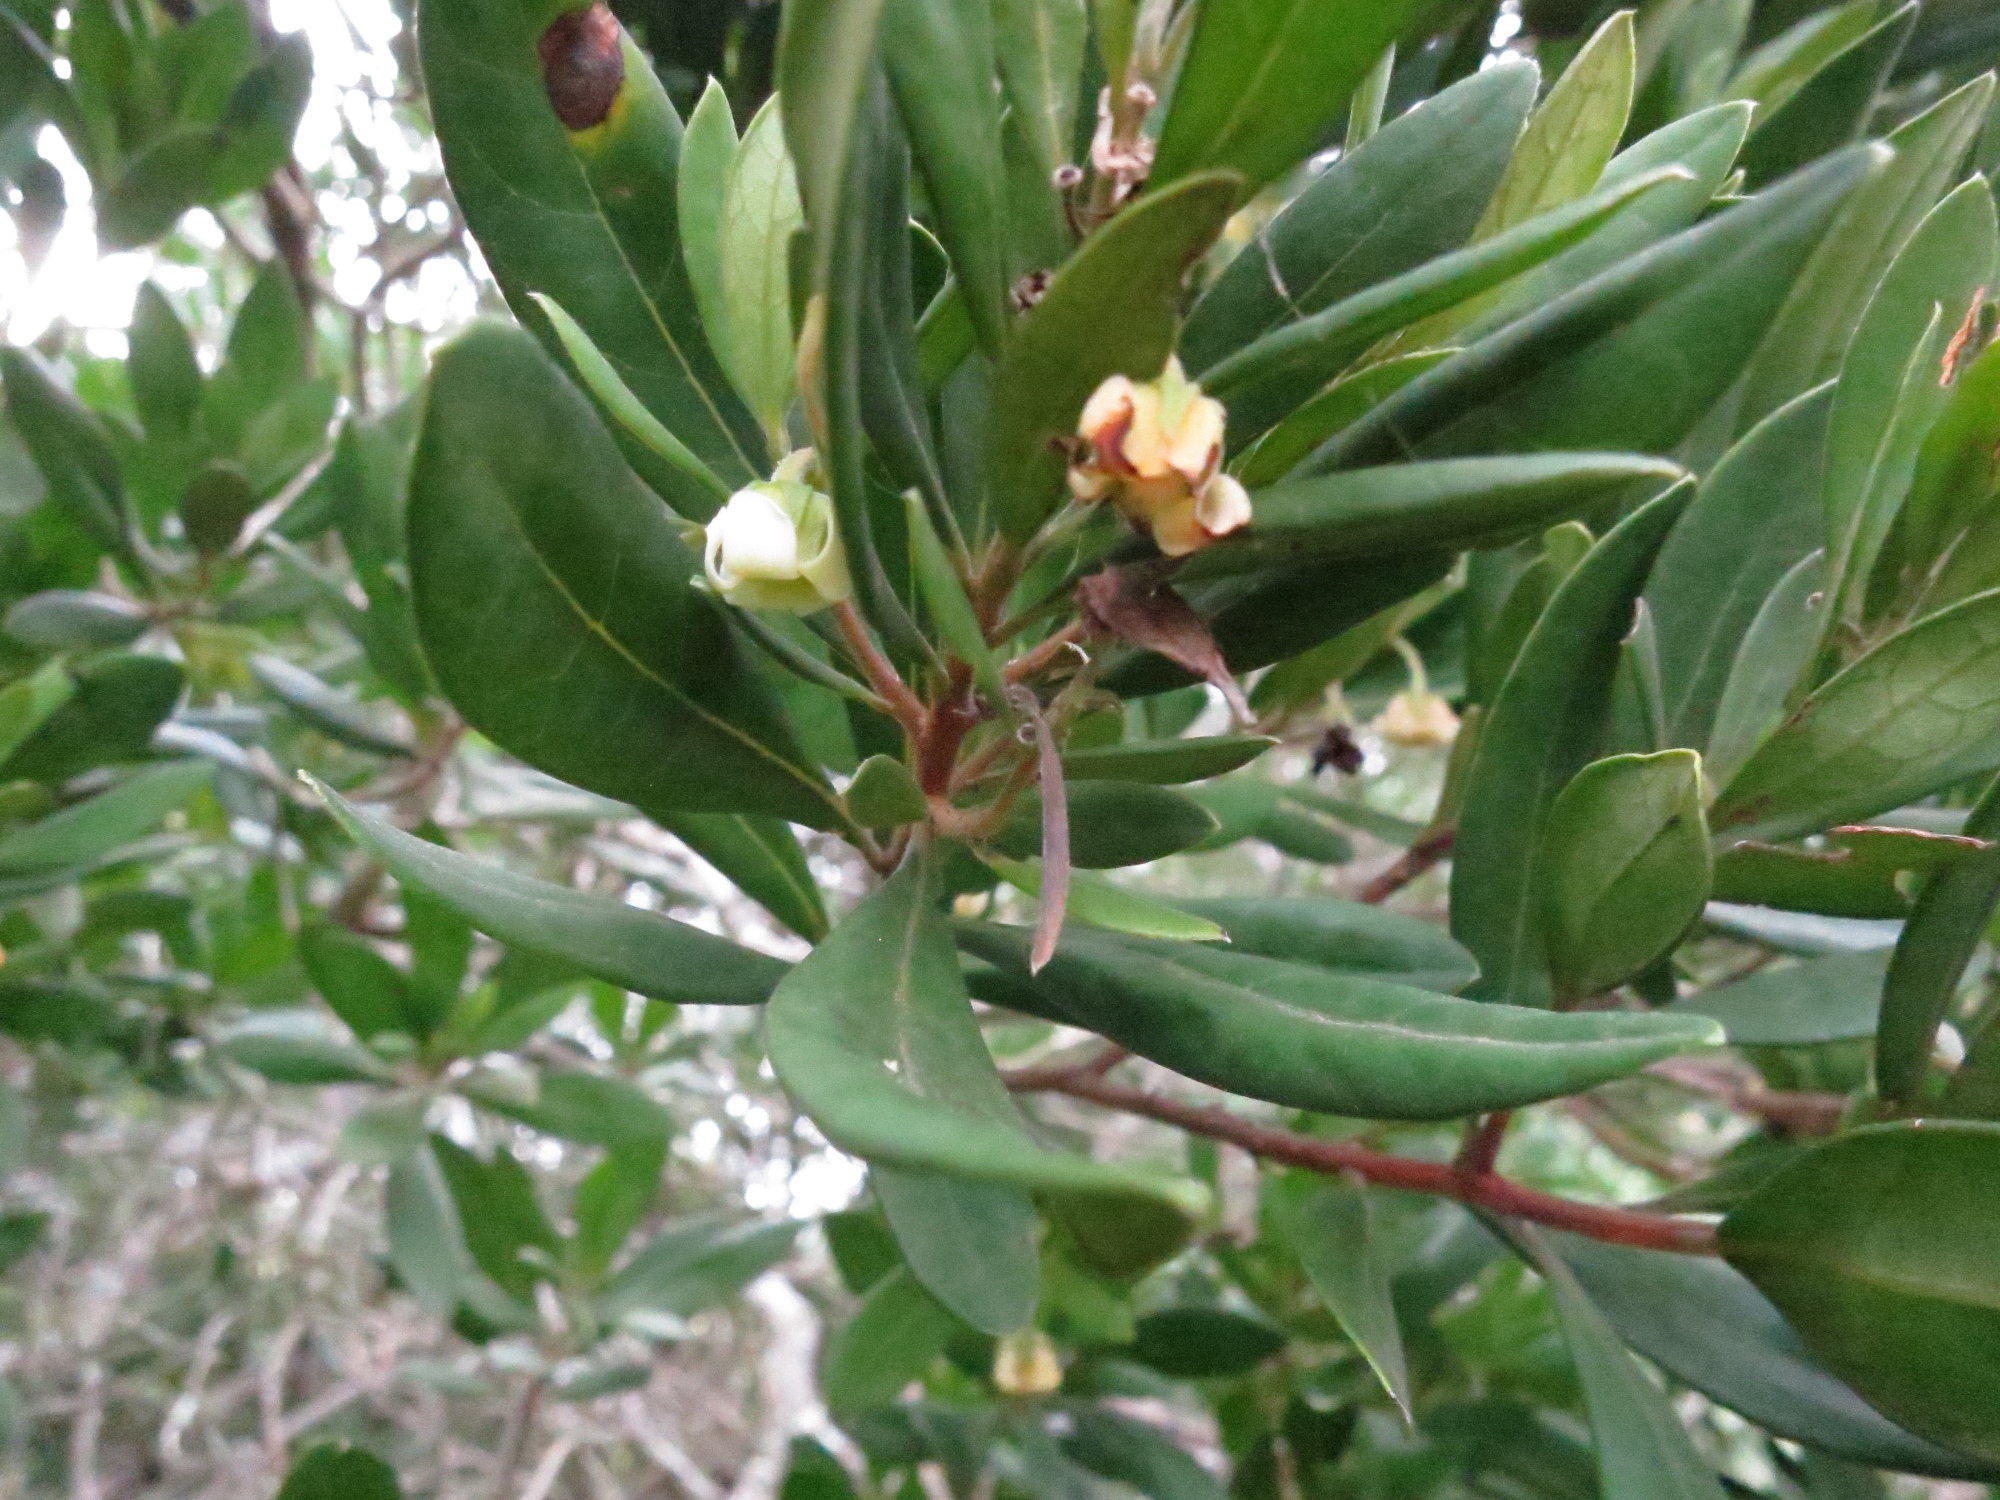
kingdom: Plantae
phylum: Tracheophyta
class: Magnoliopsida
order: Ericales
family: Ebenaceae
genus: Diospyros
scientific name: Diospyros dichrophylla
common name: Common star-apple
